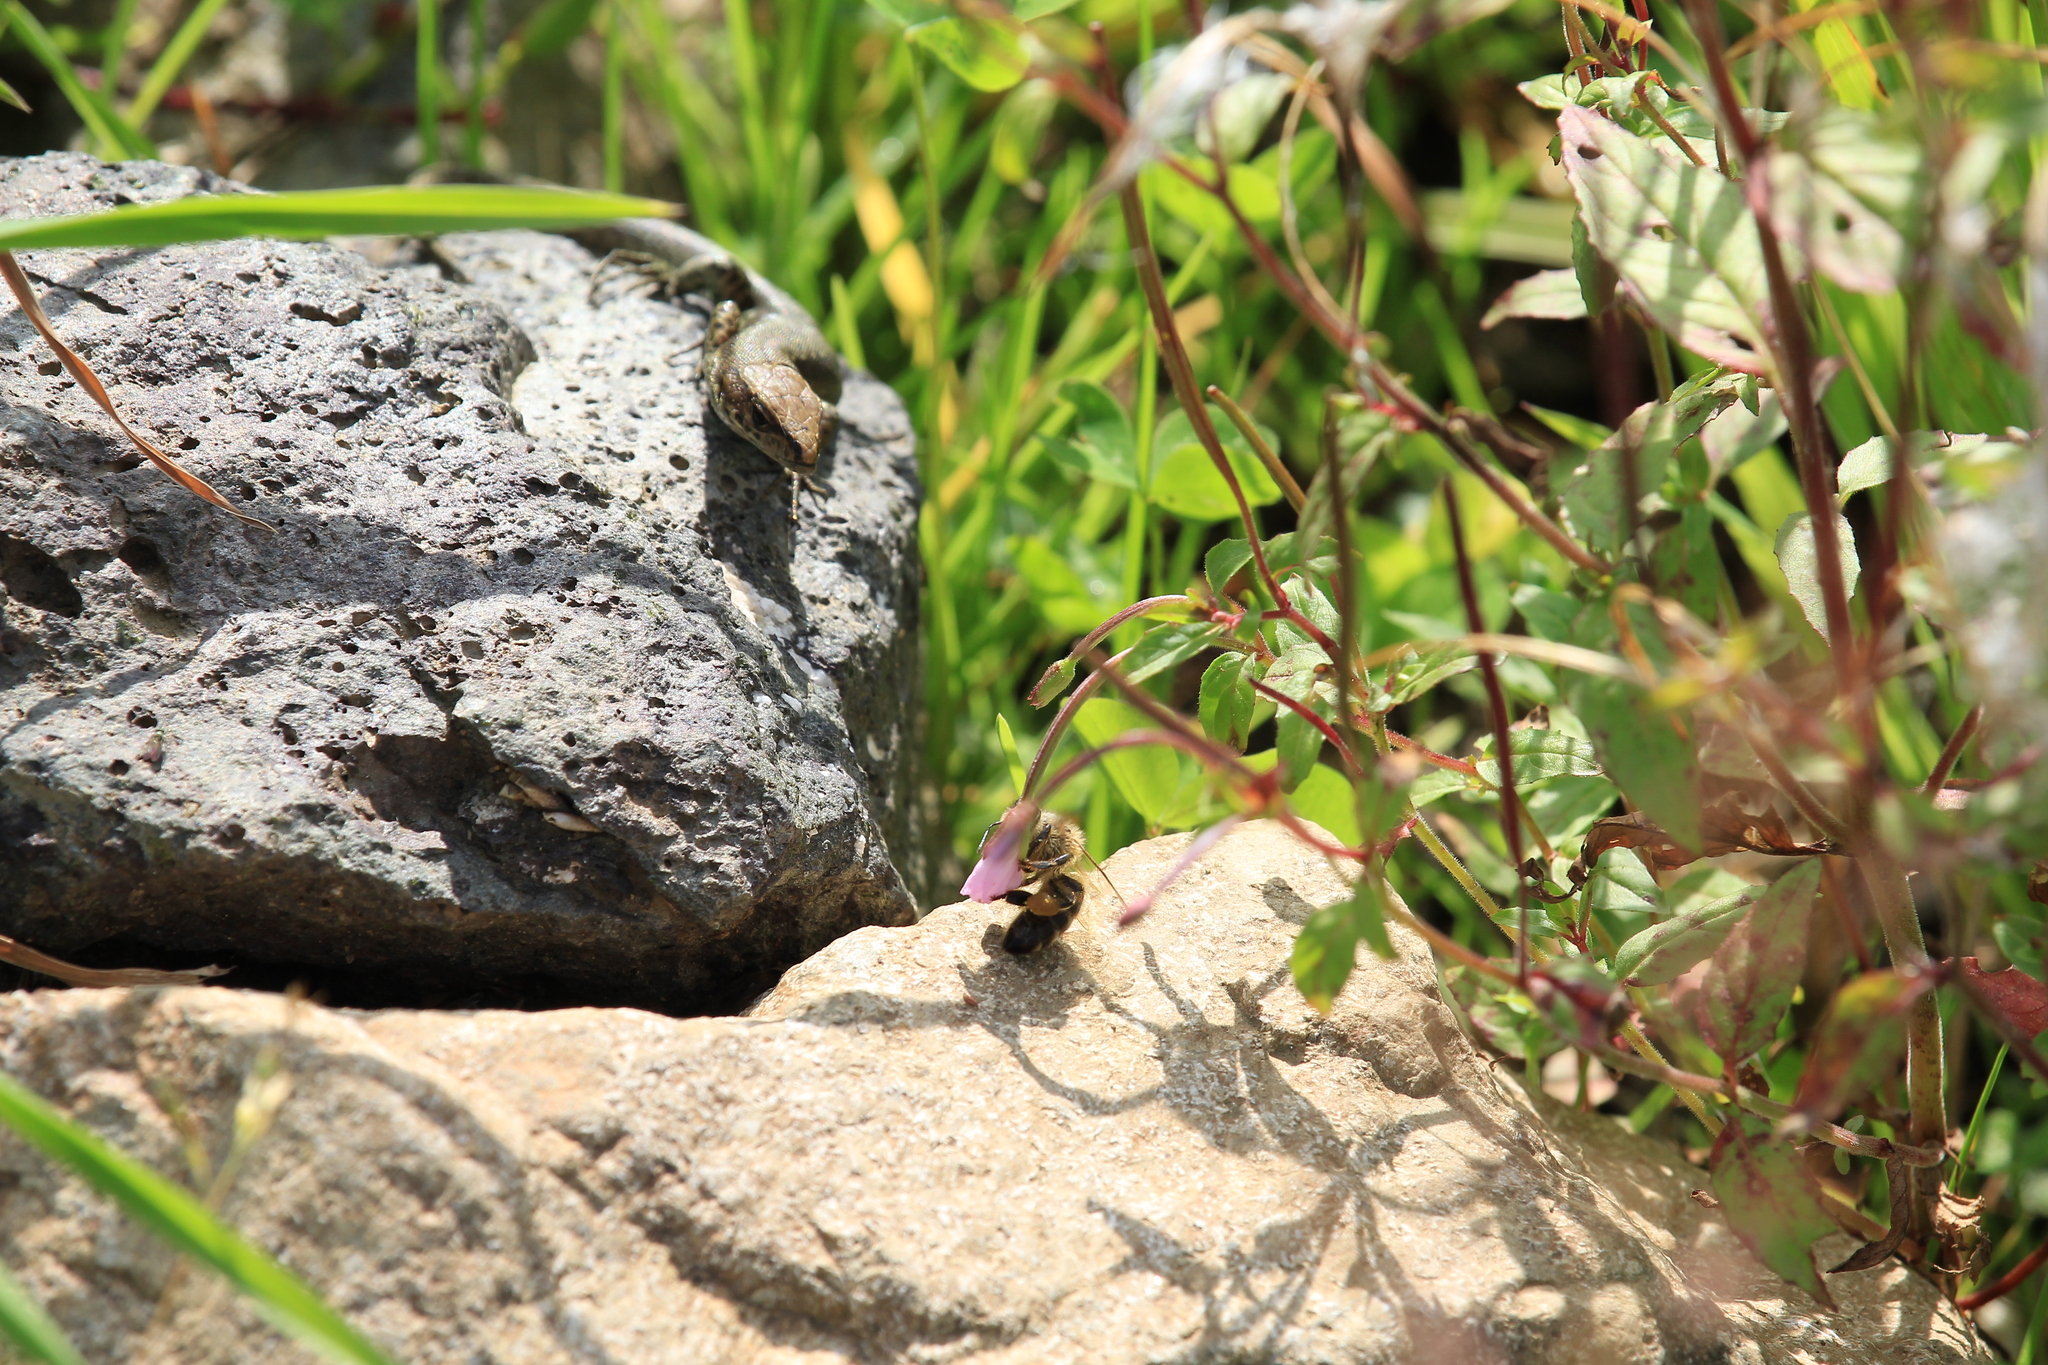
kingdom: Animalia
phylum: Chordata
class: Squamata
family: Lacertidae
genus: Darevskia
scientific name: Darevskia derjugini
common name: Derjugin's lizard
